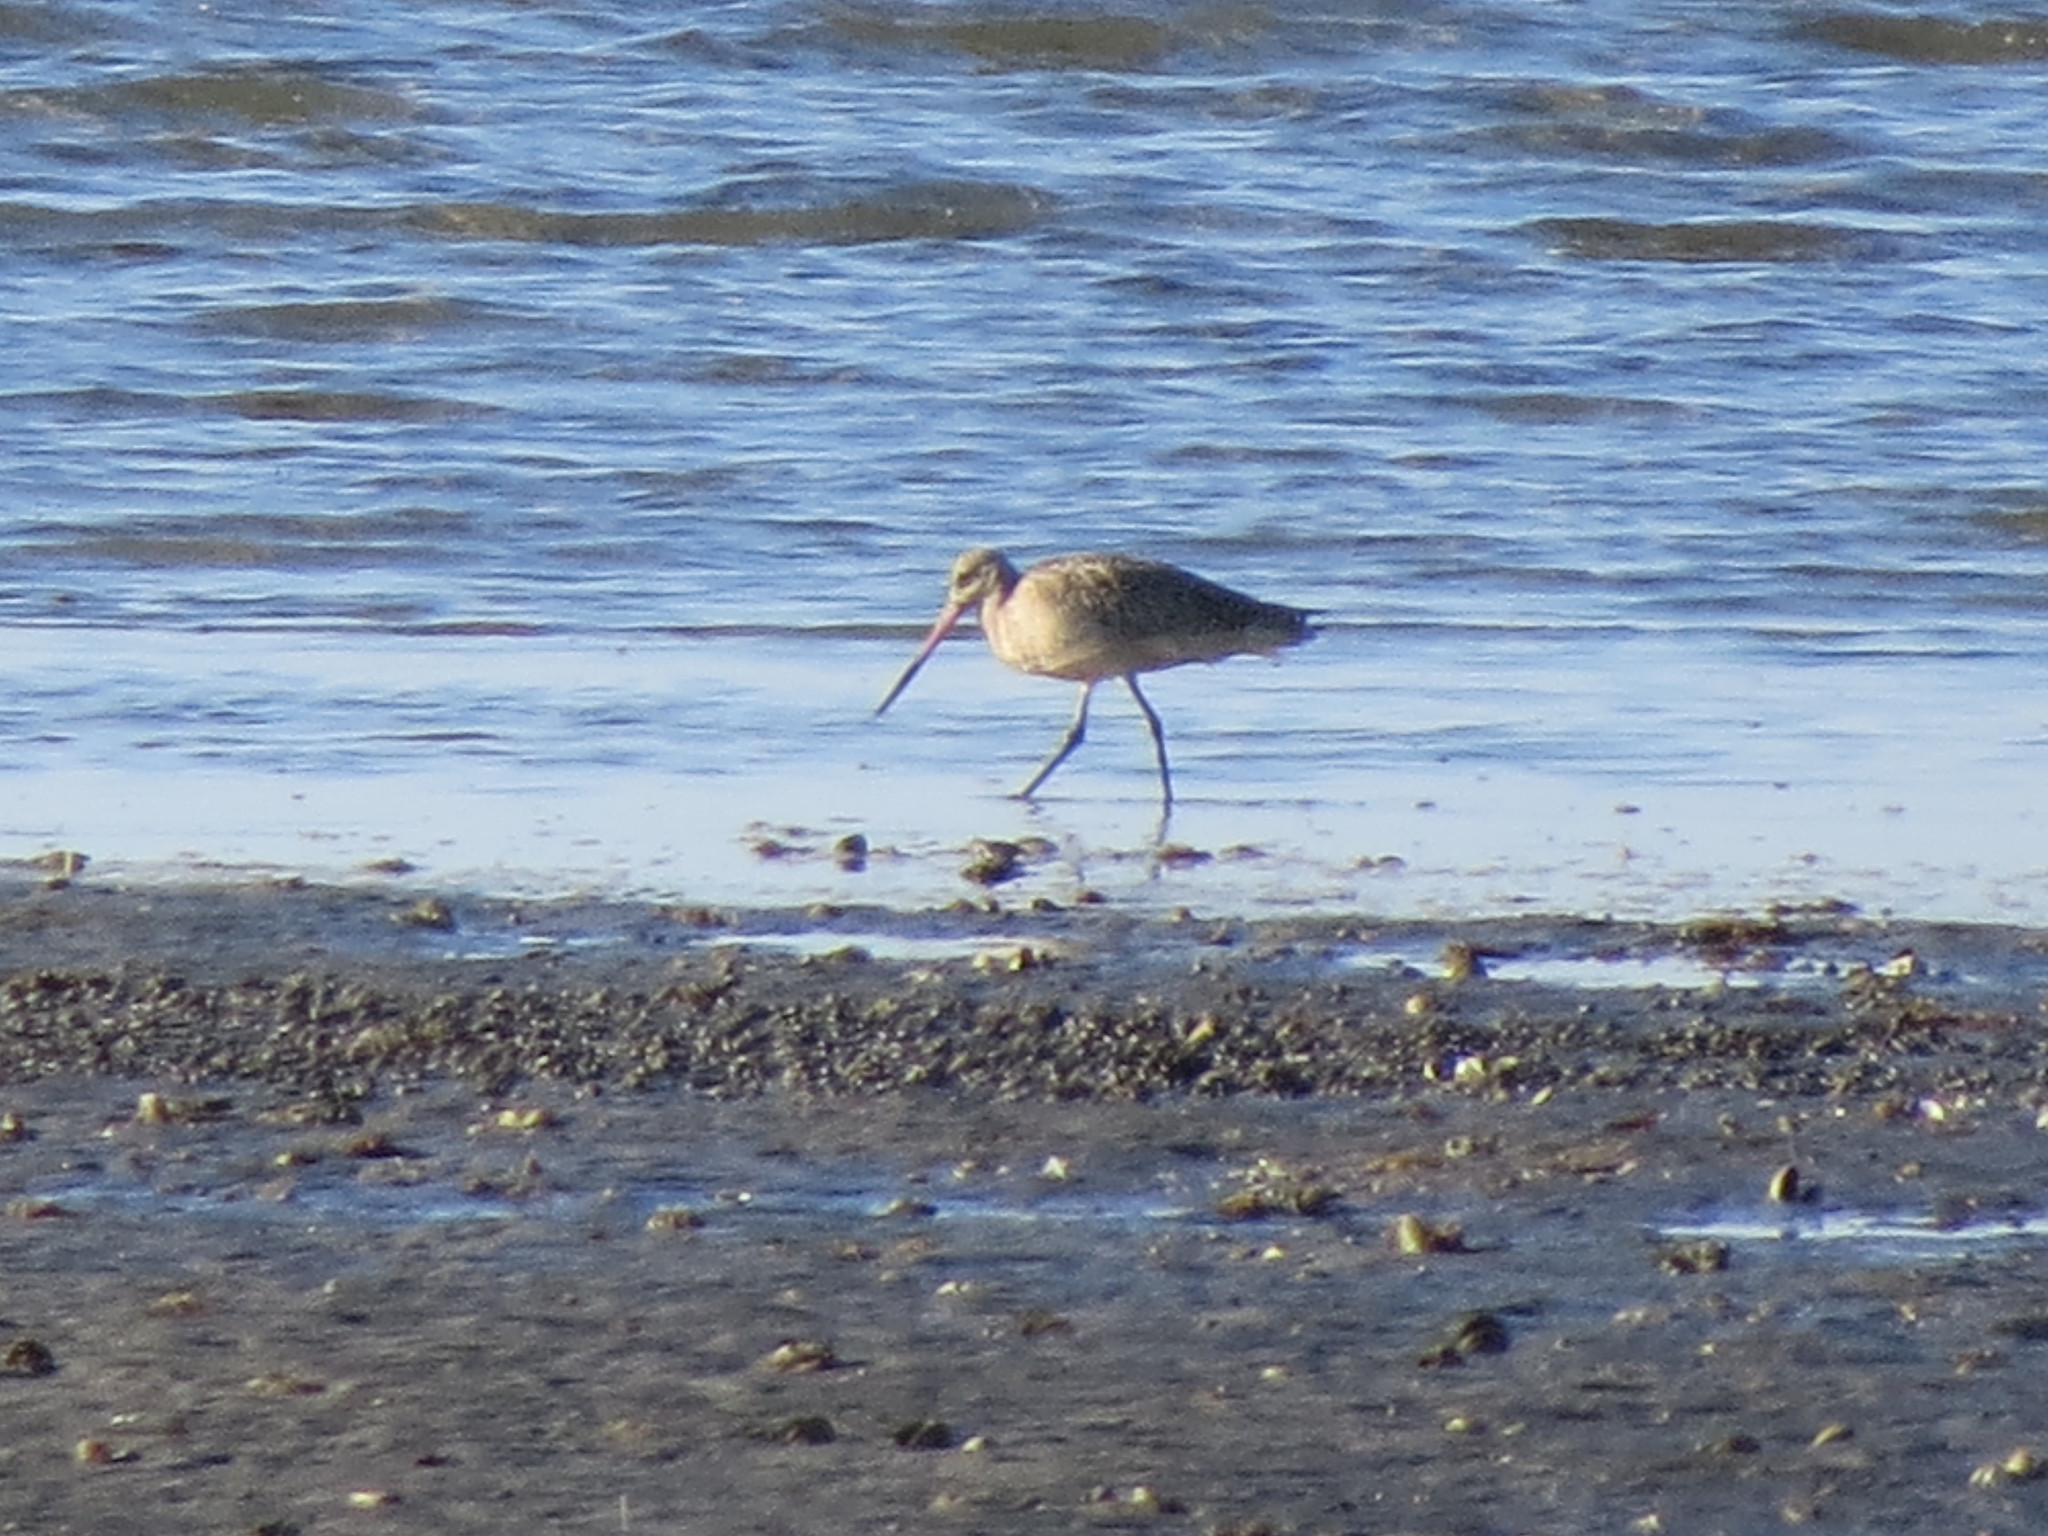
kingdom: Animalia
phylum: Chordata
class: Aves
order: Charadriiformes
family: Scolopacidae
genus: Limosa
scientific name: Limosa fedoa
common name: Marbled godwit
